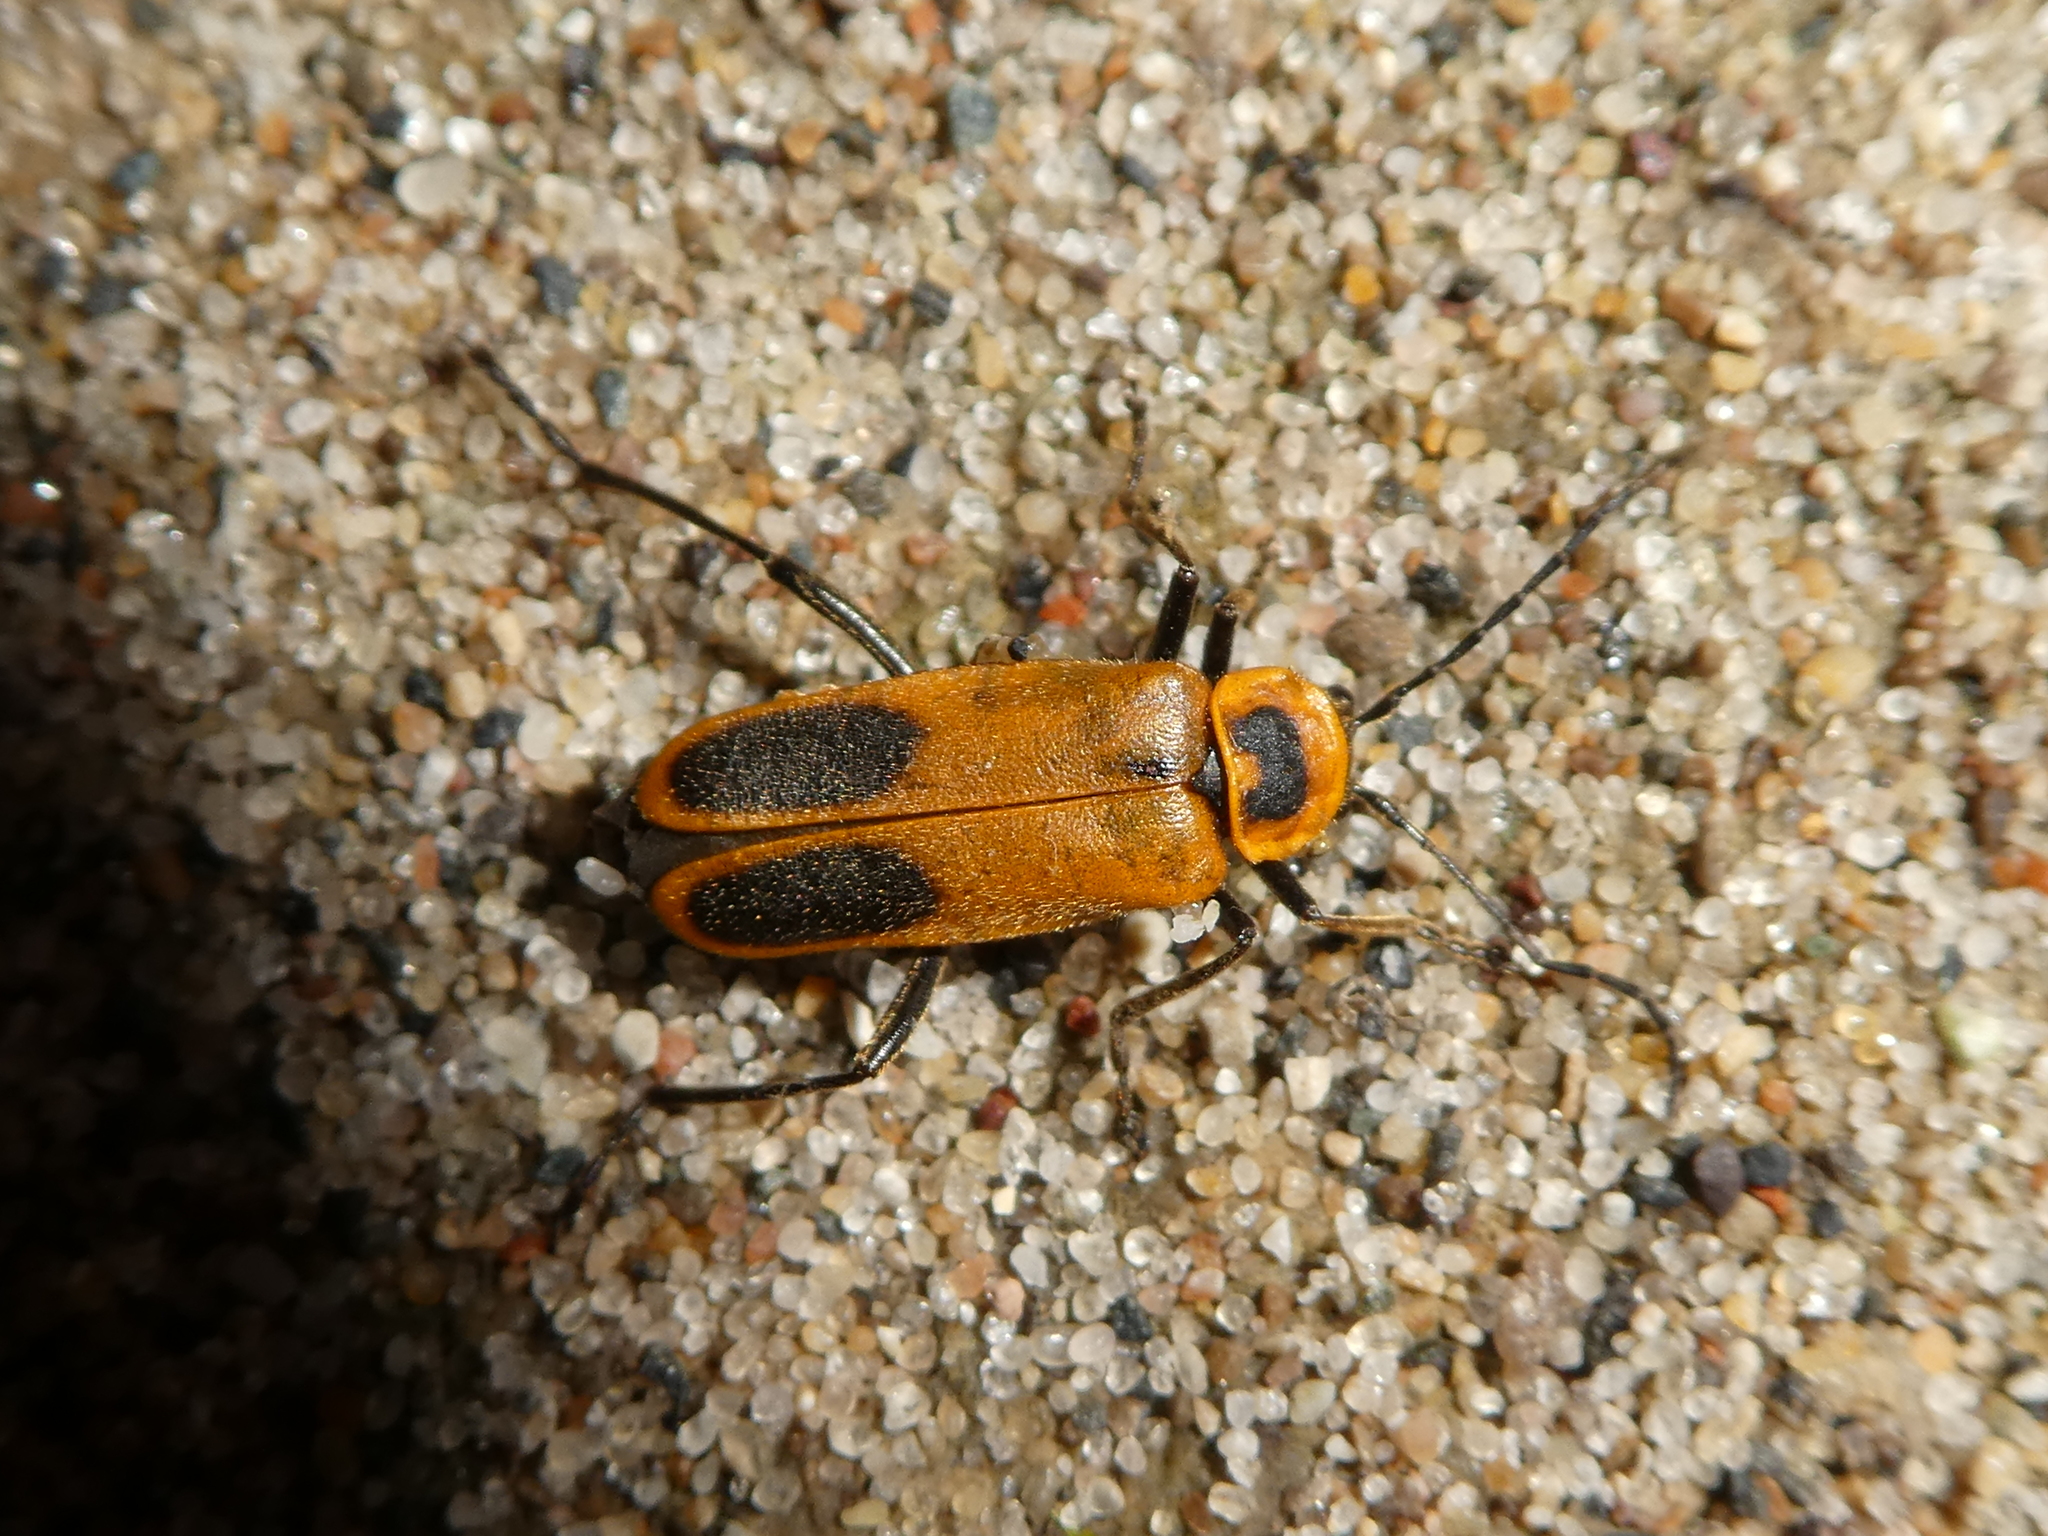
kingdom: Animalia
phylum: Arthropoda
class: Insecta
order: Coleoptera
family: Cantharidae
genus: Chauliognathus
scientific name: Chauliognathus pensylvanicus
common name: Goldenrod soldier beetle
